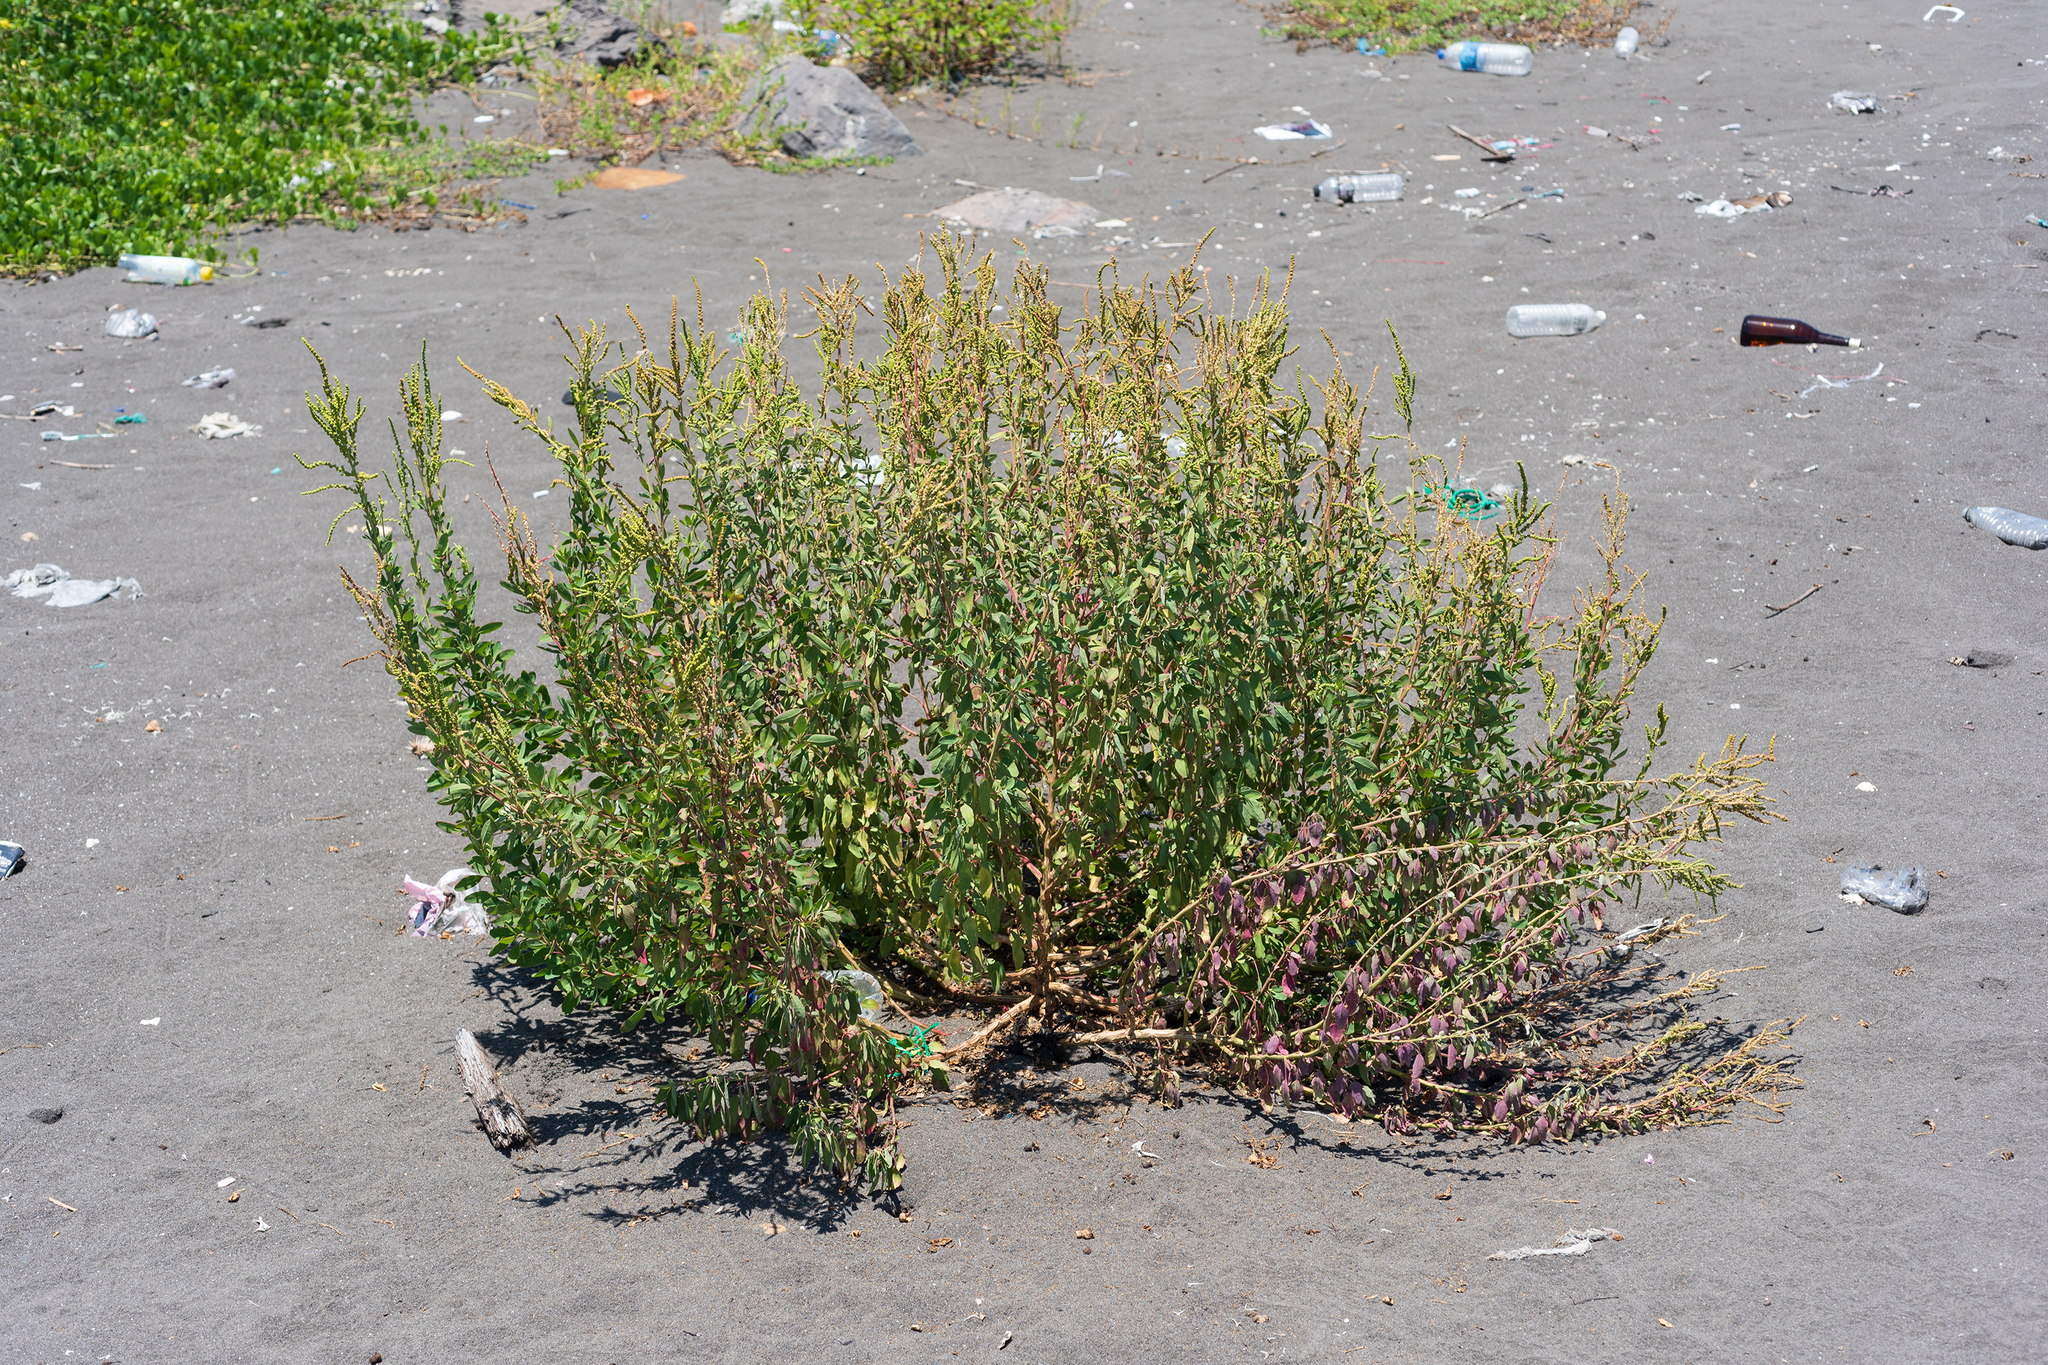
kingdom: Plantae
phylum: Tracheophyta
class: Magnoliopsida
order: Caryophyllales
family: Amaranthaceae
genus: Chenopodium
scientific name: Chenopodium acuminatum
